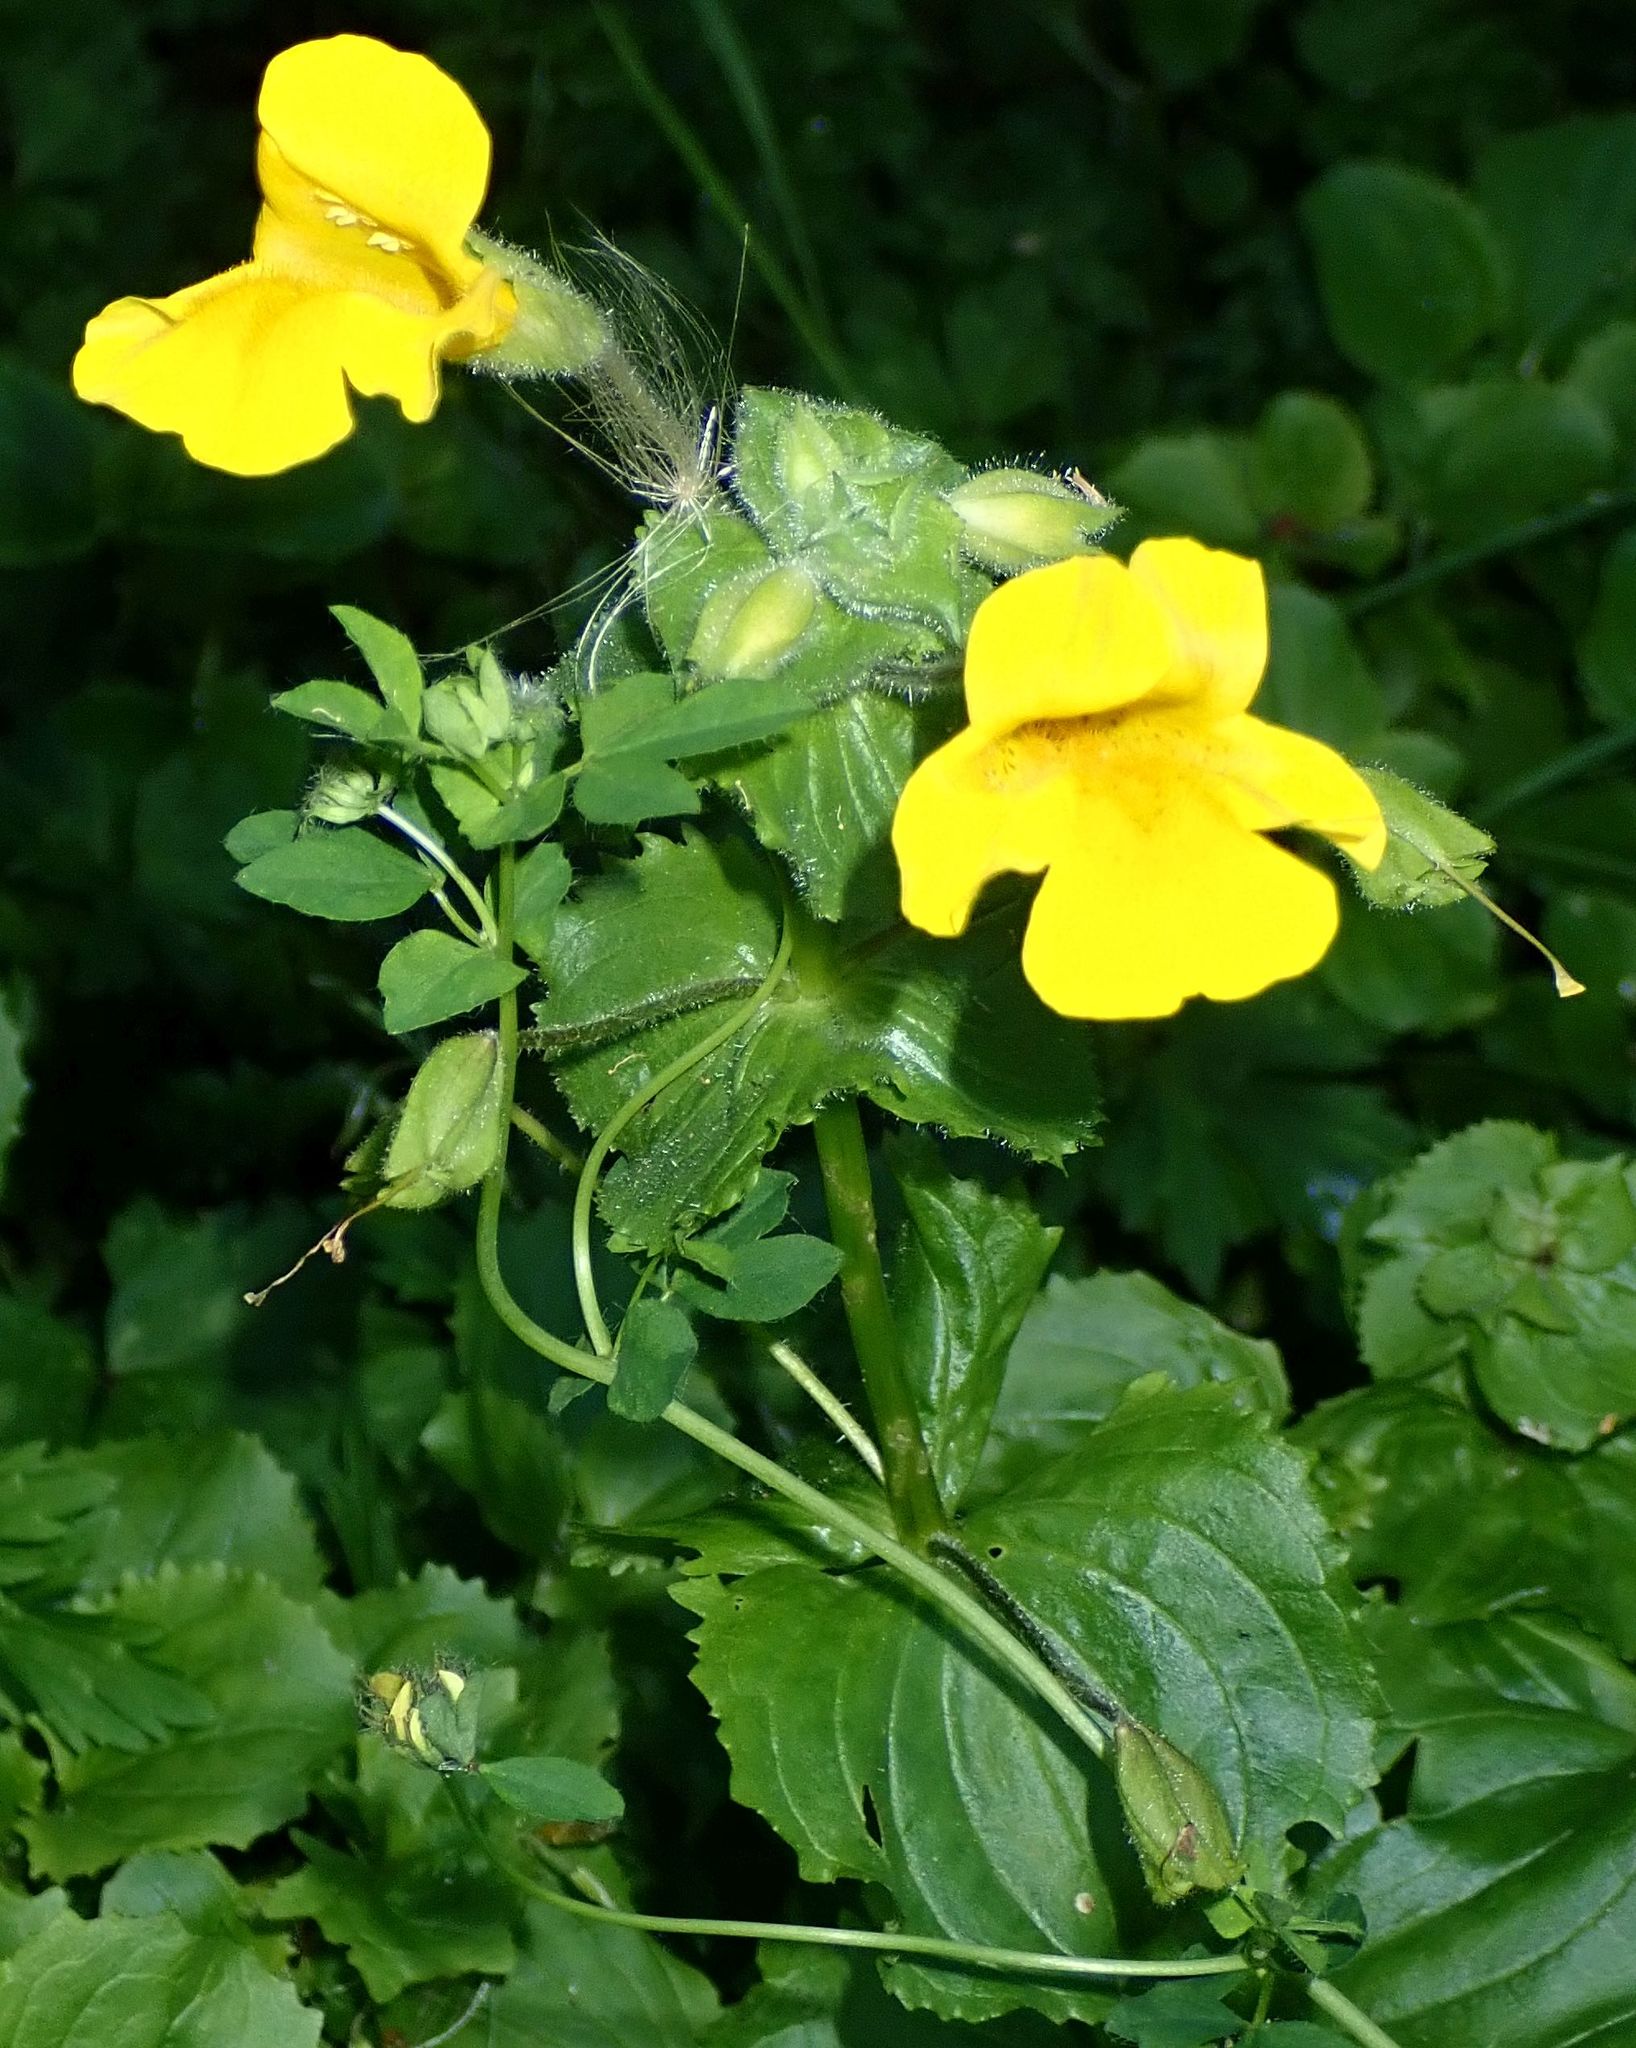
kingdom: Plantae
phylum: Tracheophyta
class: Magnoliopsida
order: Lamiales
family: Phrymaceae
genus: Erythranthe
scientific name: Erythranthe guttata
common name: Monkeyflower
